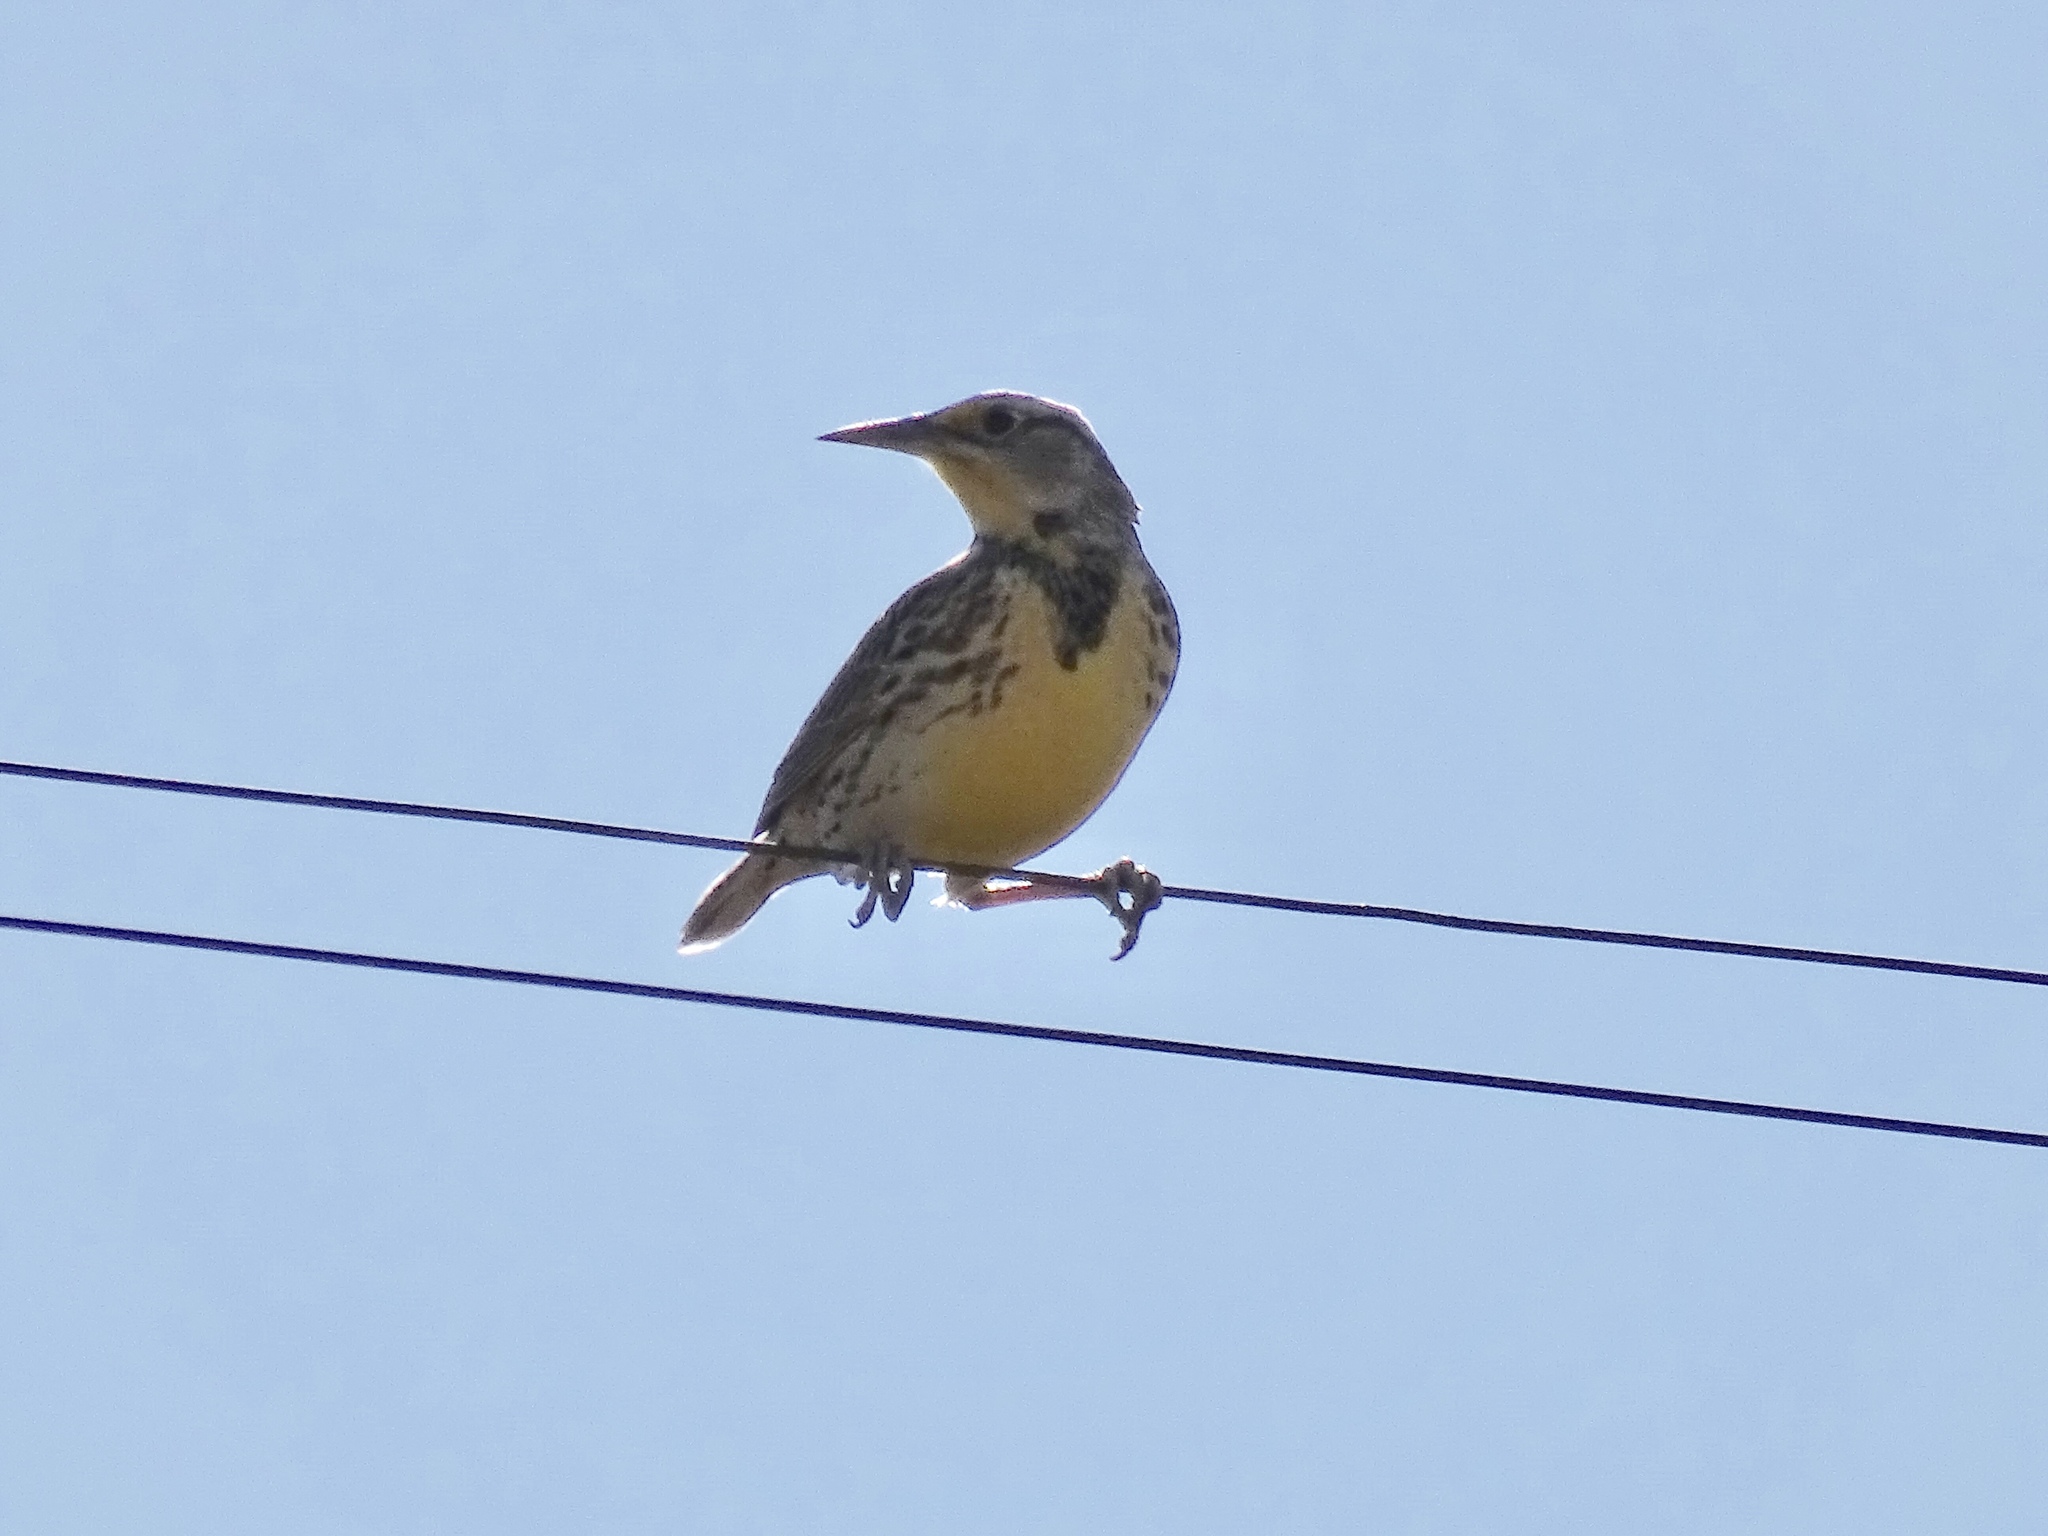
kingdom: Animalia
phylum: Chordata
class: Aves
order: Passeriformes
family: Icteridae
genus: Sturnella
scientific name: Sturnella neglecta
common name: Western meadowlark
